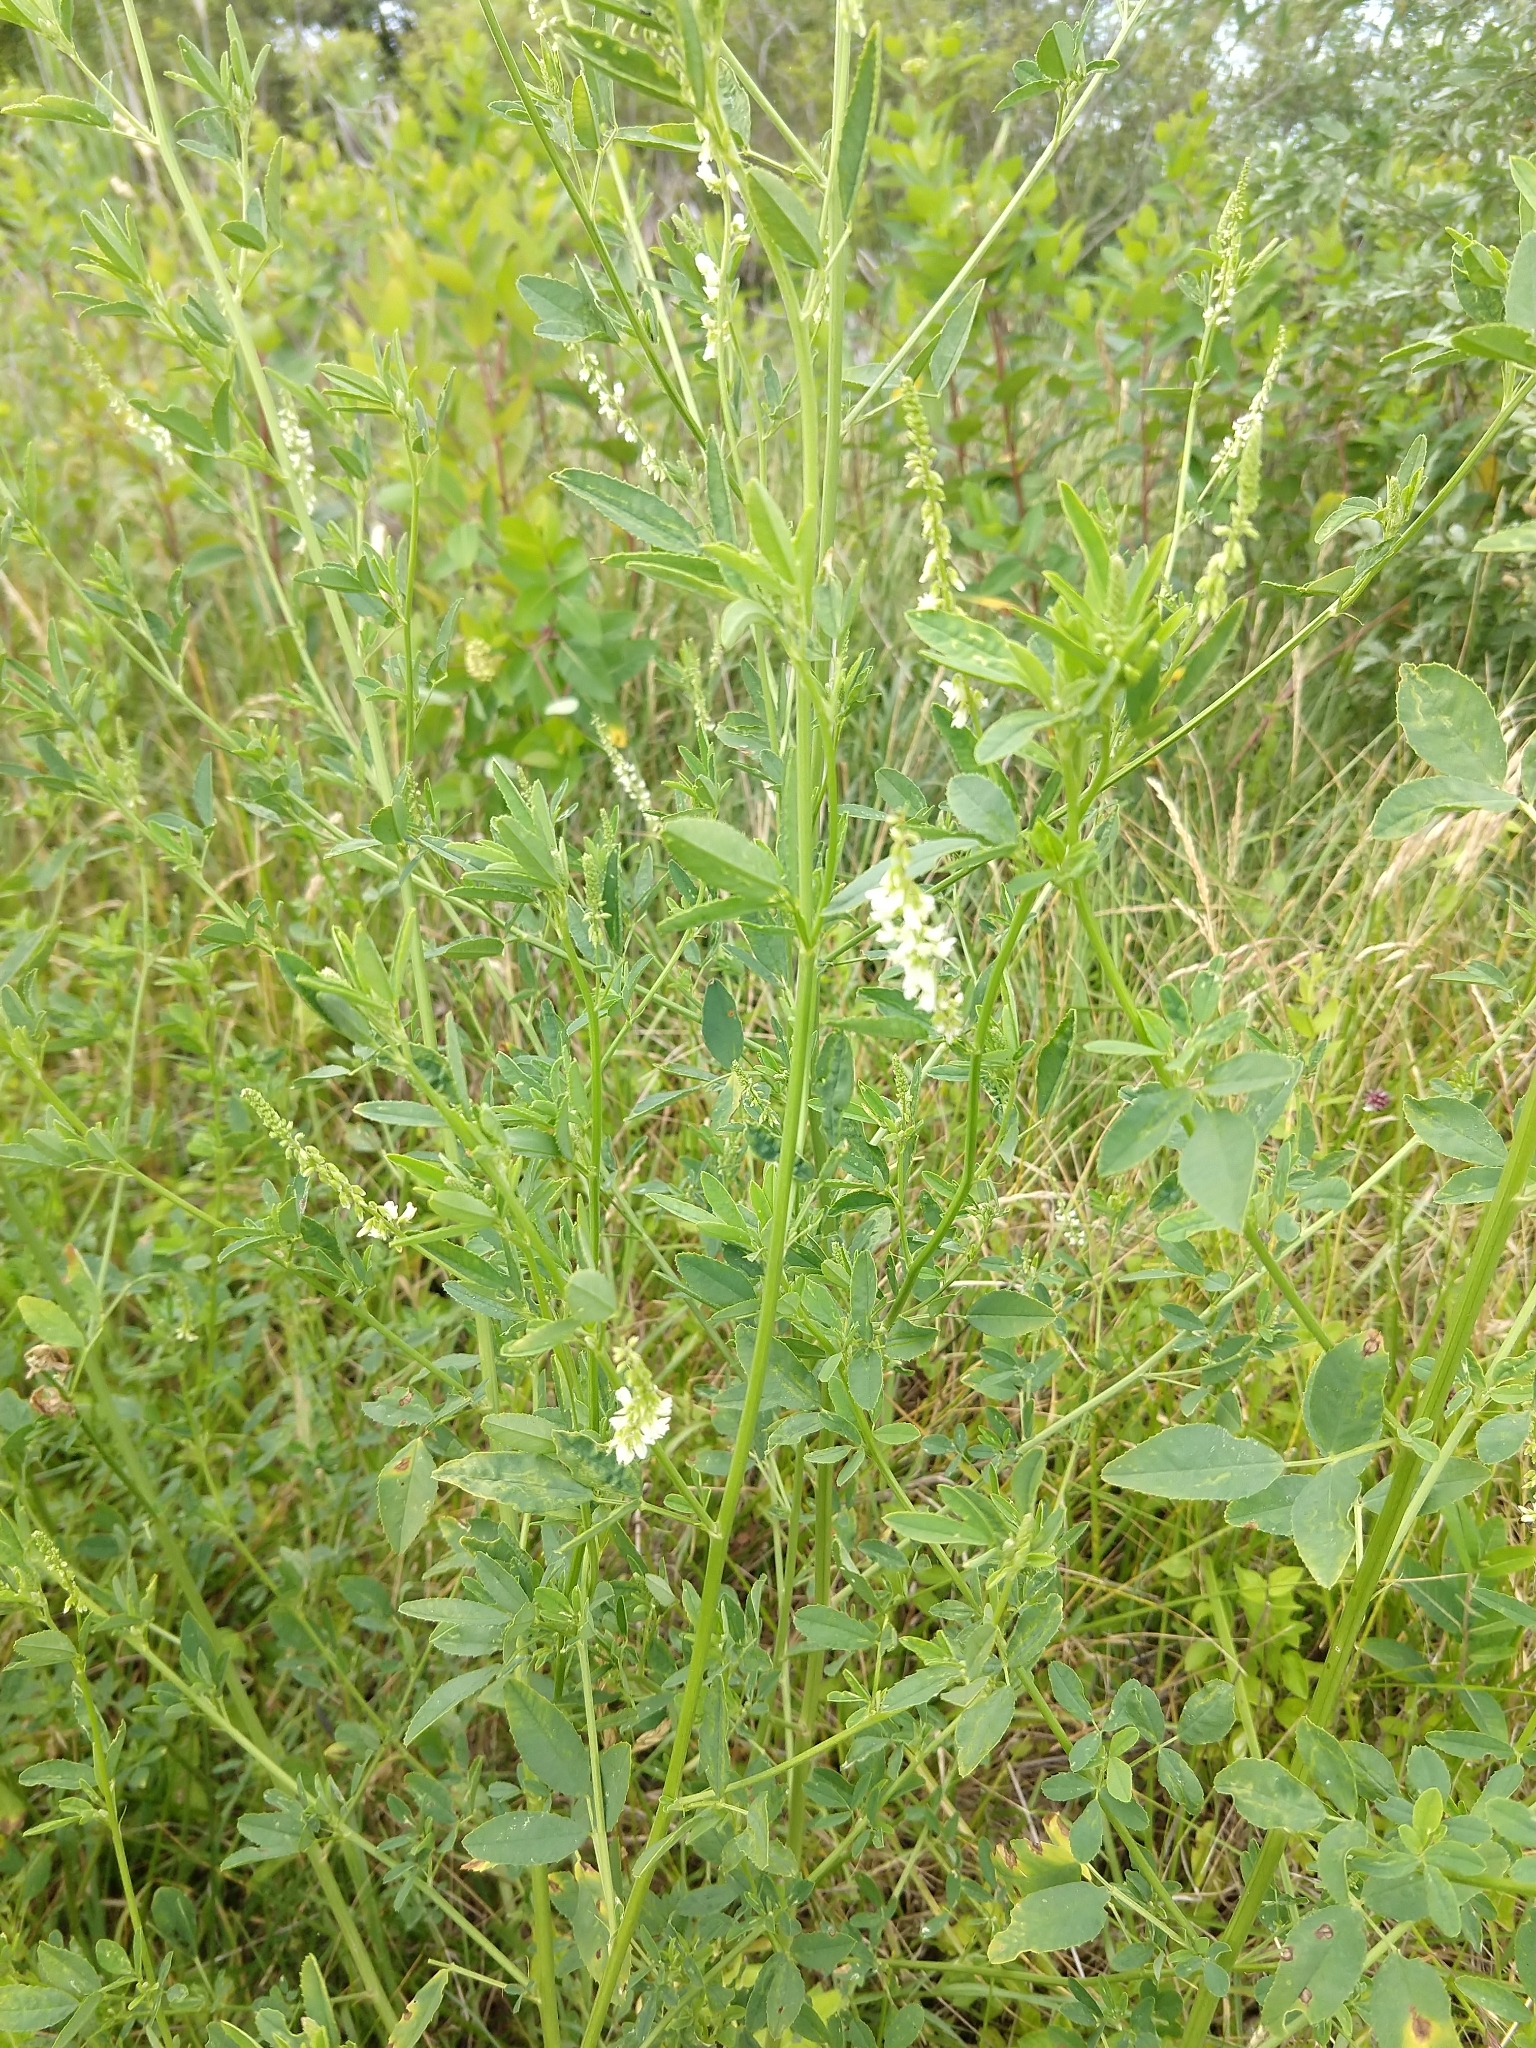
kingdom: Plantae
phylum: Tracheophyta
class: Magnoliopsida
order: Fabales
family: Fabaceae
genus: Melilotus
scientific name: Melilotus albus
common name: White melilot
